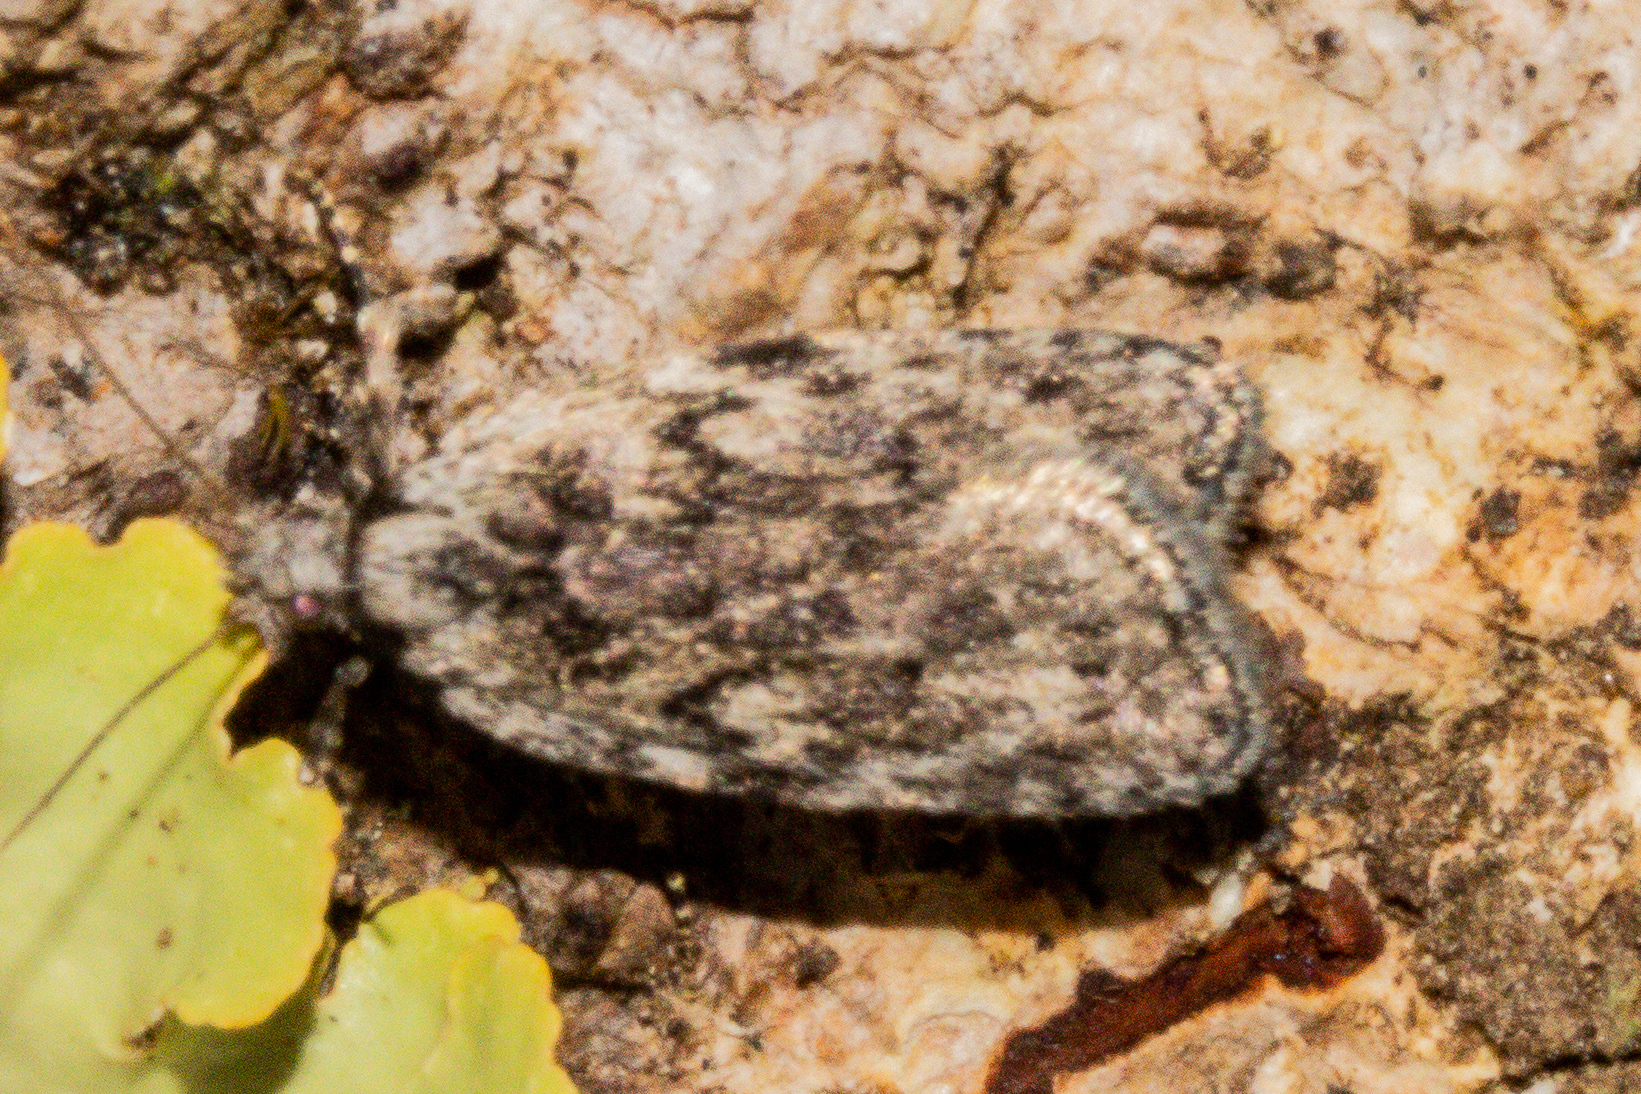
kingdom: Animalia
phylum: Arthropoda
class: Insecta
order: Lepidoptera
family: Depressariidae
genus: Phaeosaces
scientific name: Phaeosaces compsotypa
